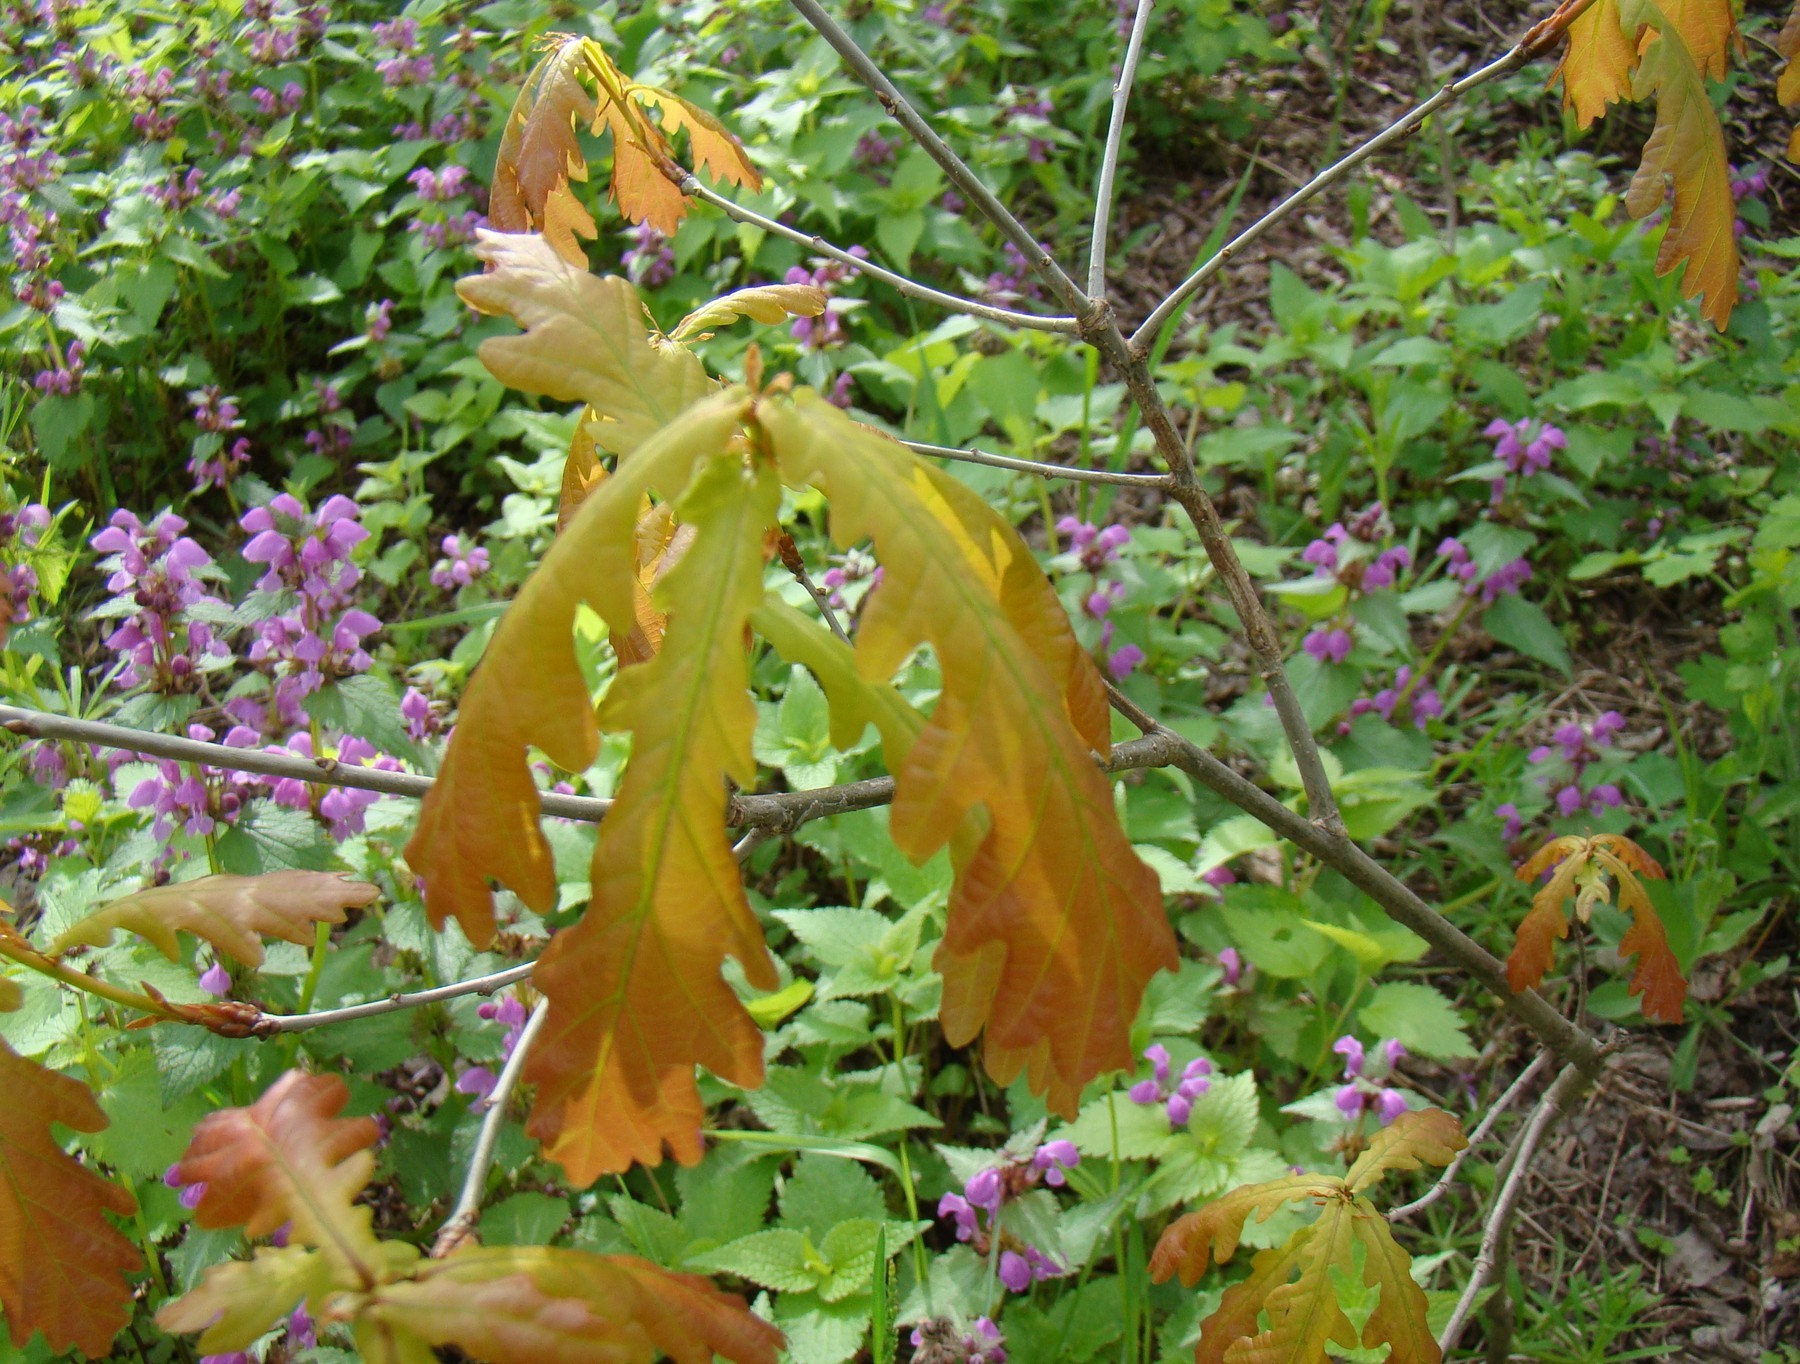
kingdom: Plantae
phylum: Tracheophyta
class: Magnoliopsida
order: Fagales
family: Fagaceae
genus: Quercus
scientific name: Quercus robur
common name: Pedunculate oak
